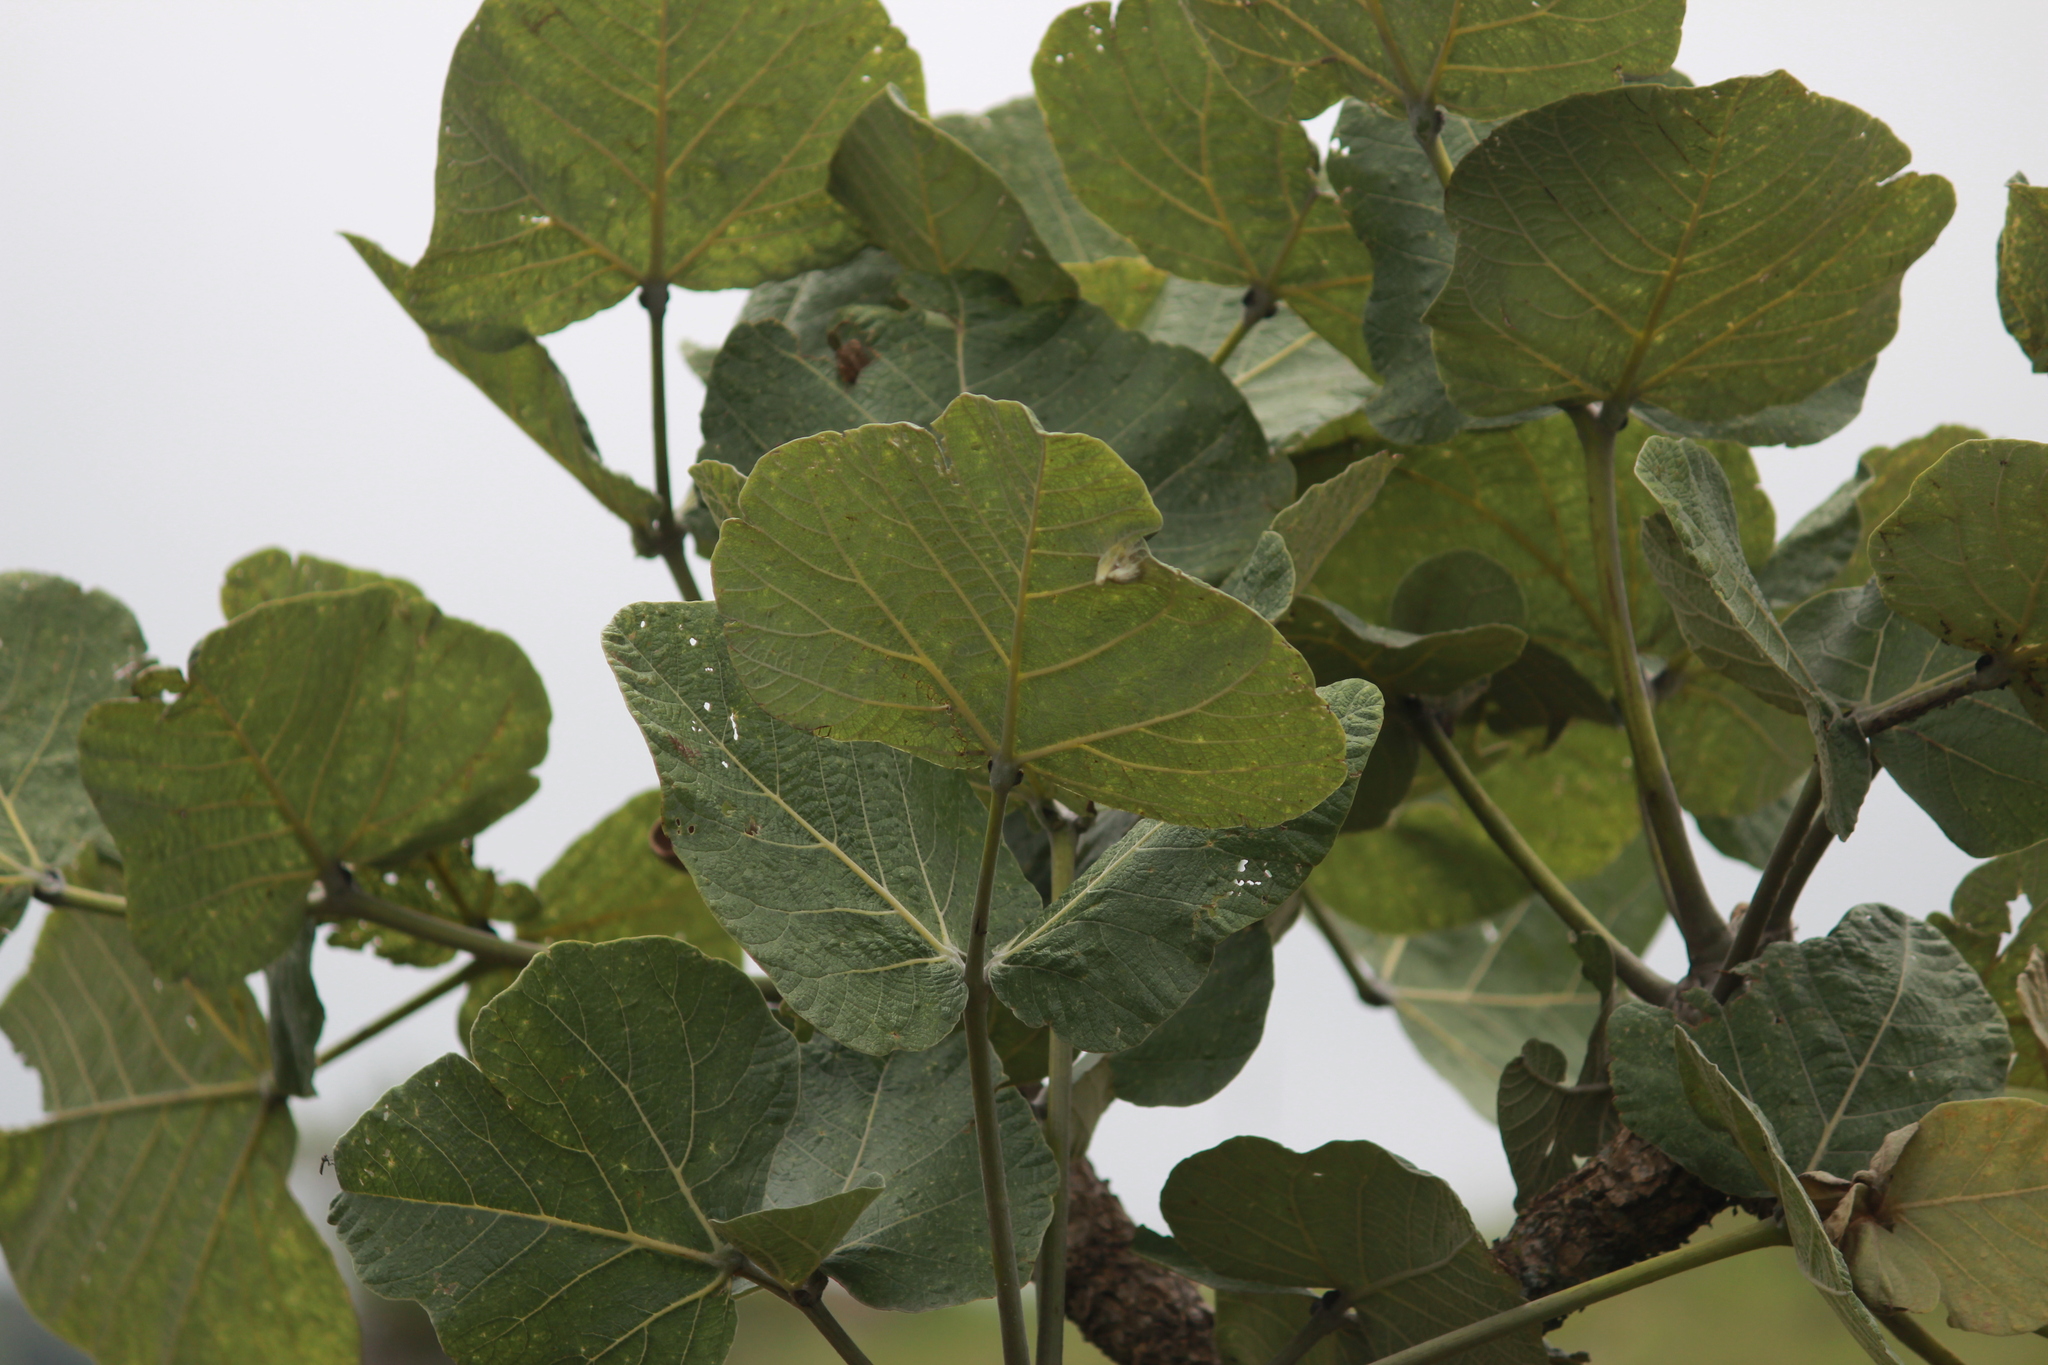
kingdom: Plantae
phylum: Tracheophyta
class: Magnoliopsida
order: Fabales
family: Fabaceae
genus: Erythrina
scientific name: Erythrina latissima
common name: Broad-leaved coral tree
